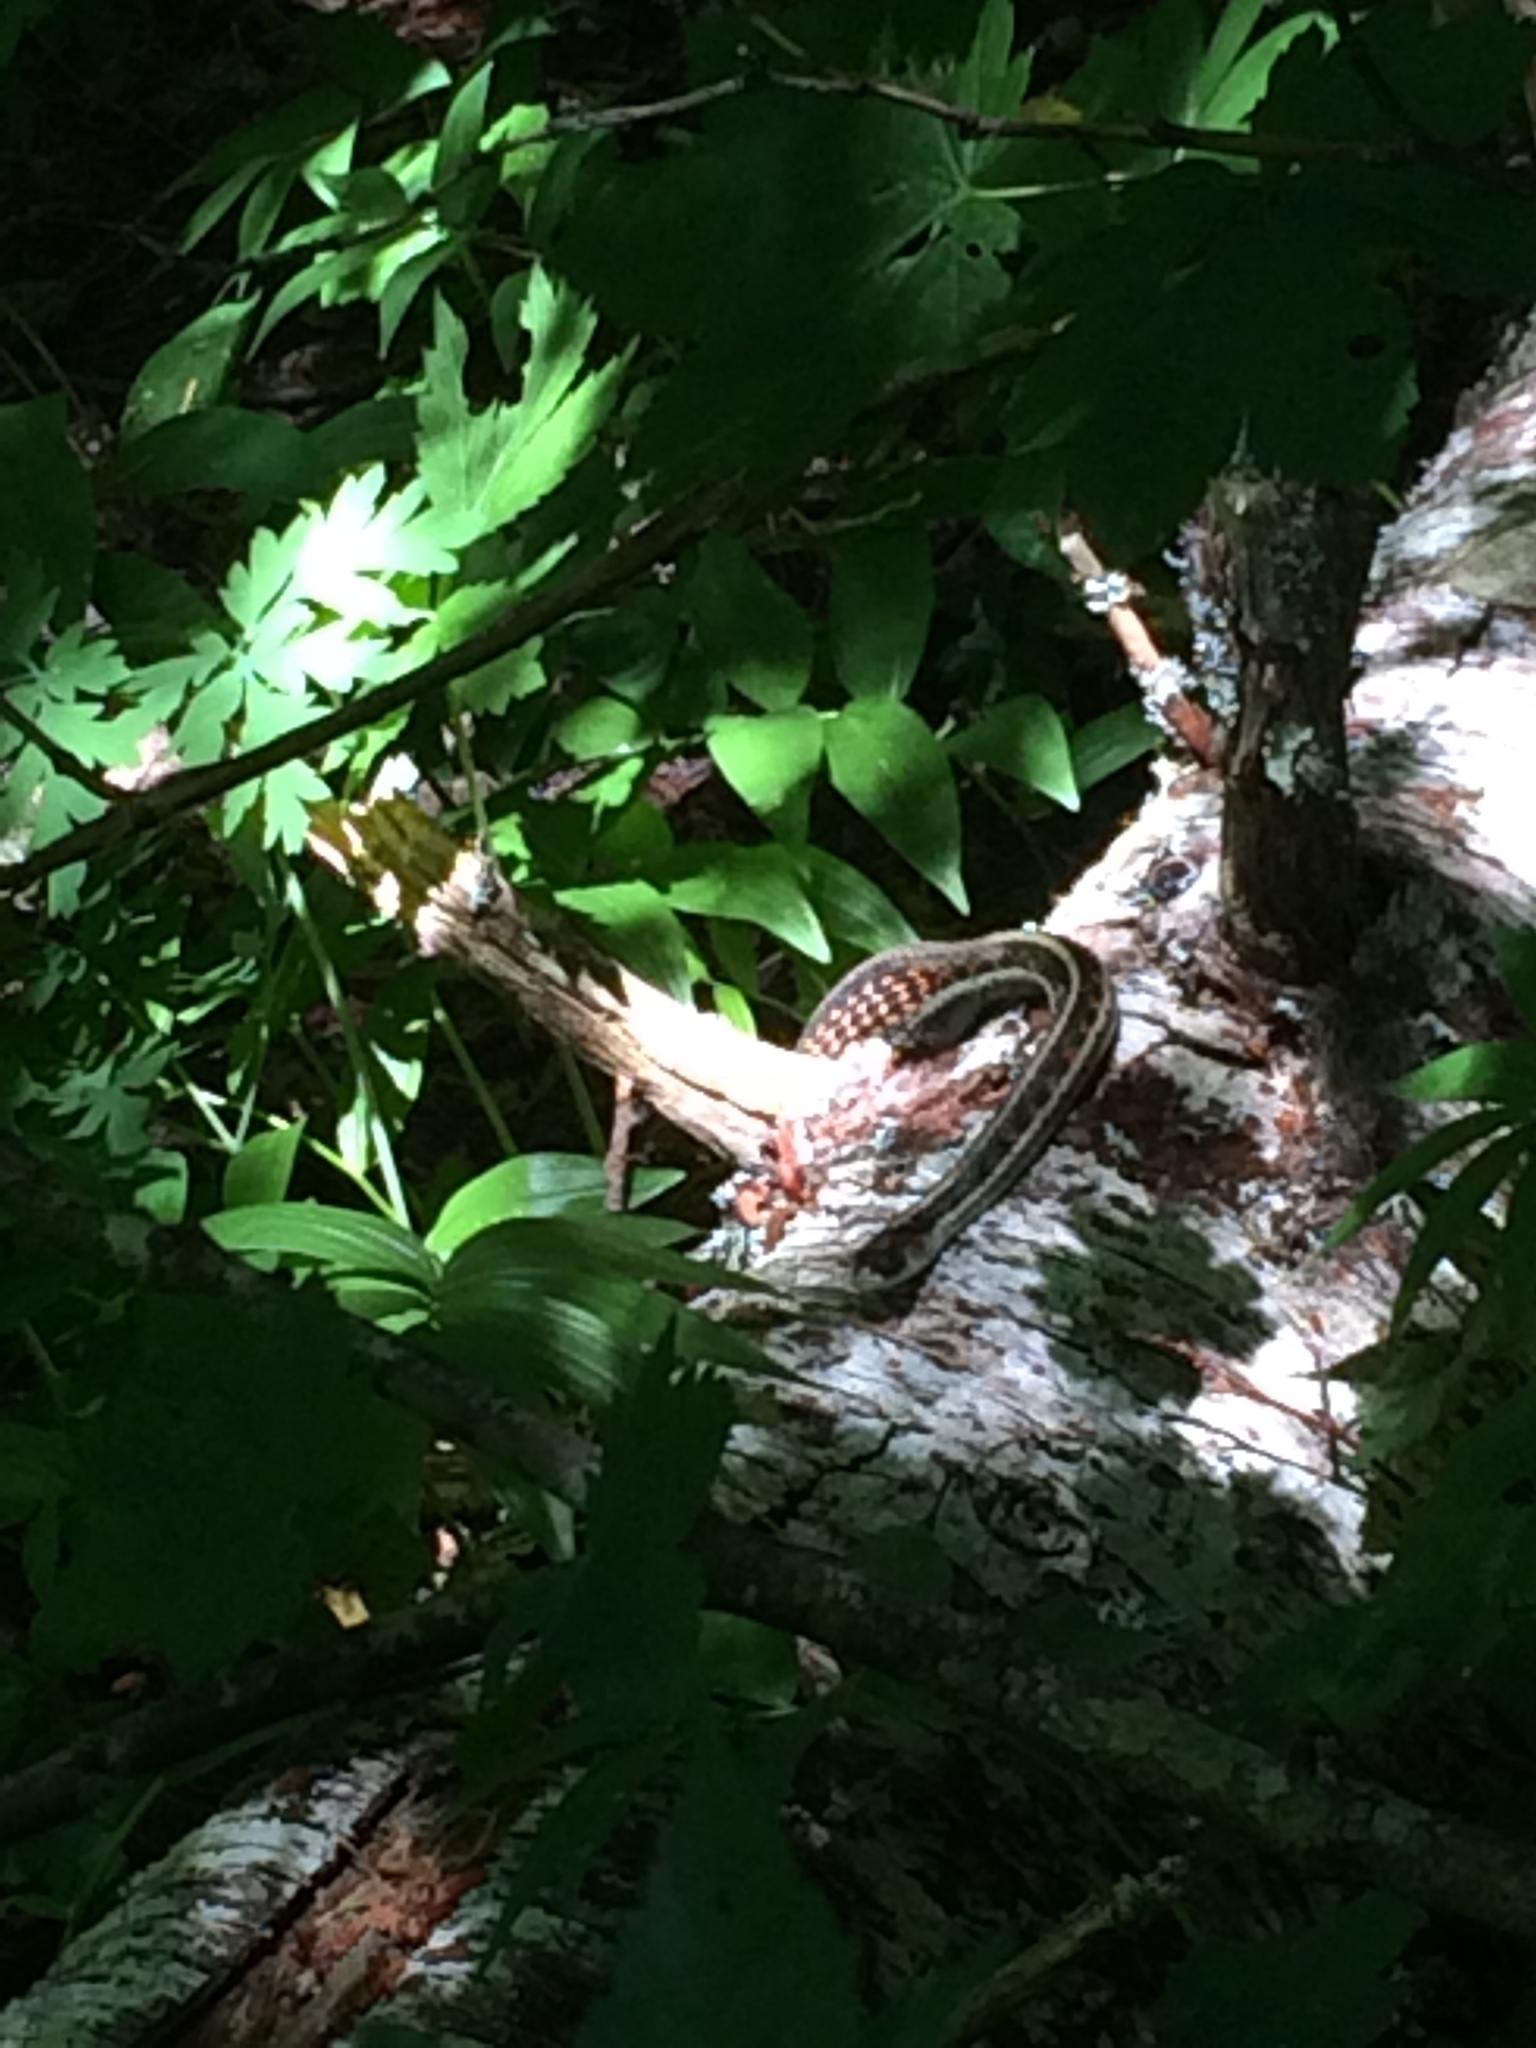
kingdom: Animalia
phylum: Chordata
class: Squamata
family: Colubridae
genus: Thamnophis
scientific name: Thamnophis sirtalis
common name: Common garter snake
